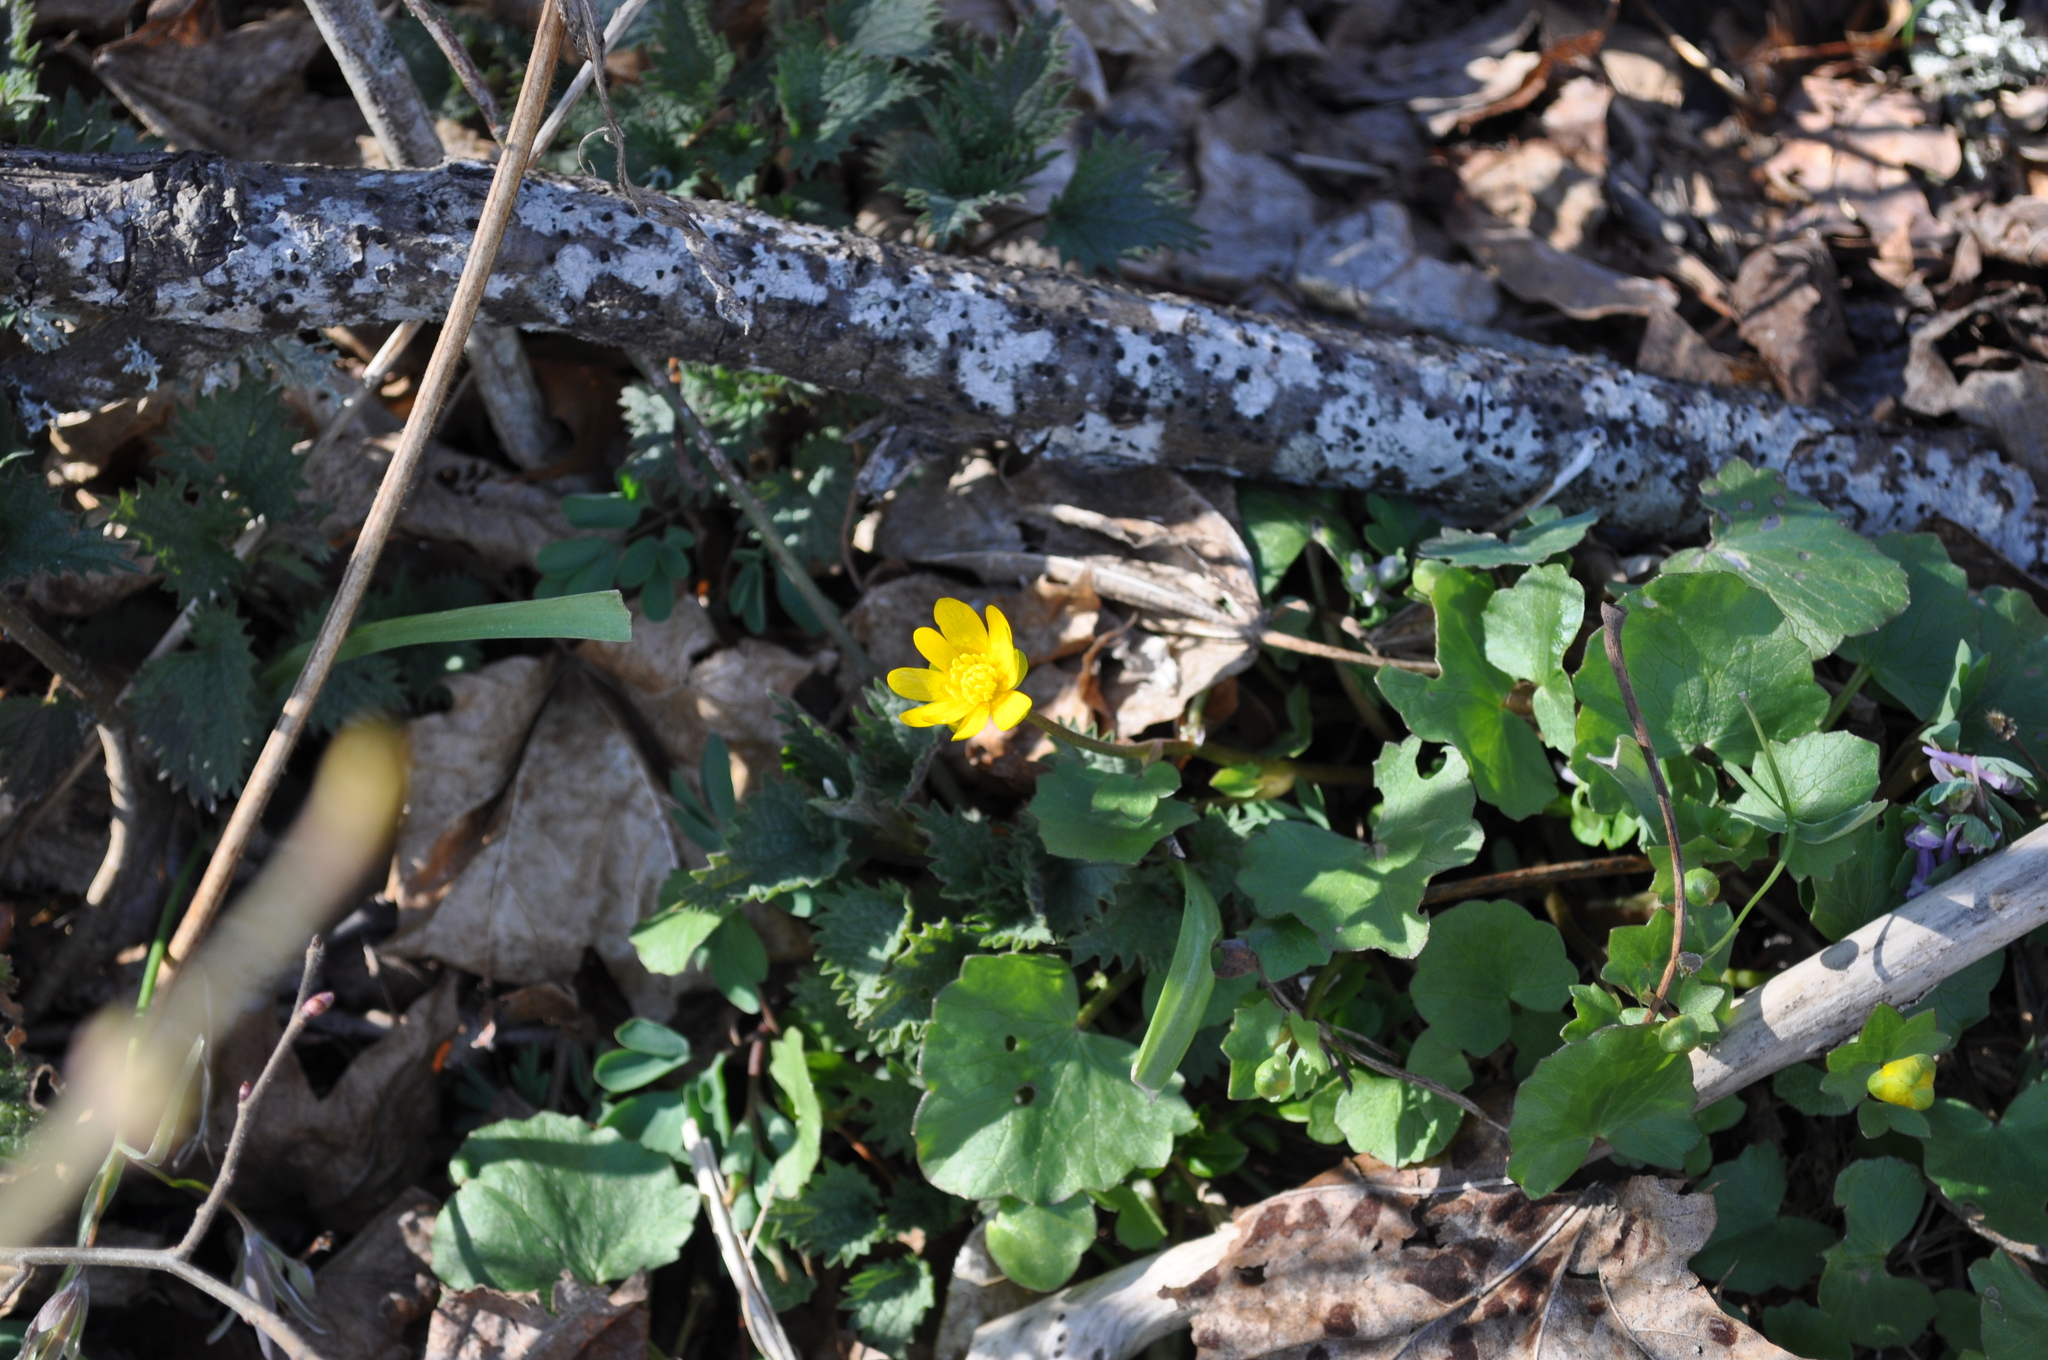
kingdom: Plantae
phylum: Tracheophyta
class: Magnoliopsida
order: Ranunculales
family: Ranunculaceae
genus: Ficaria
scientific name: Ficaria verna
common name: Lesser celandine
